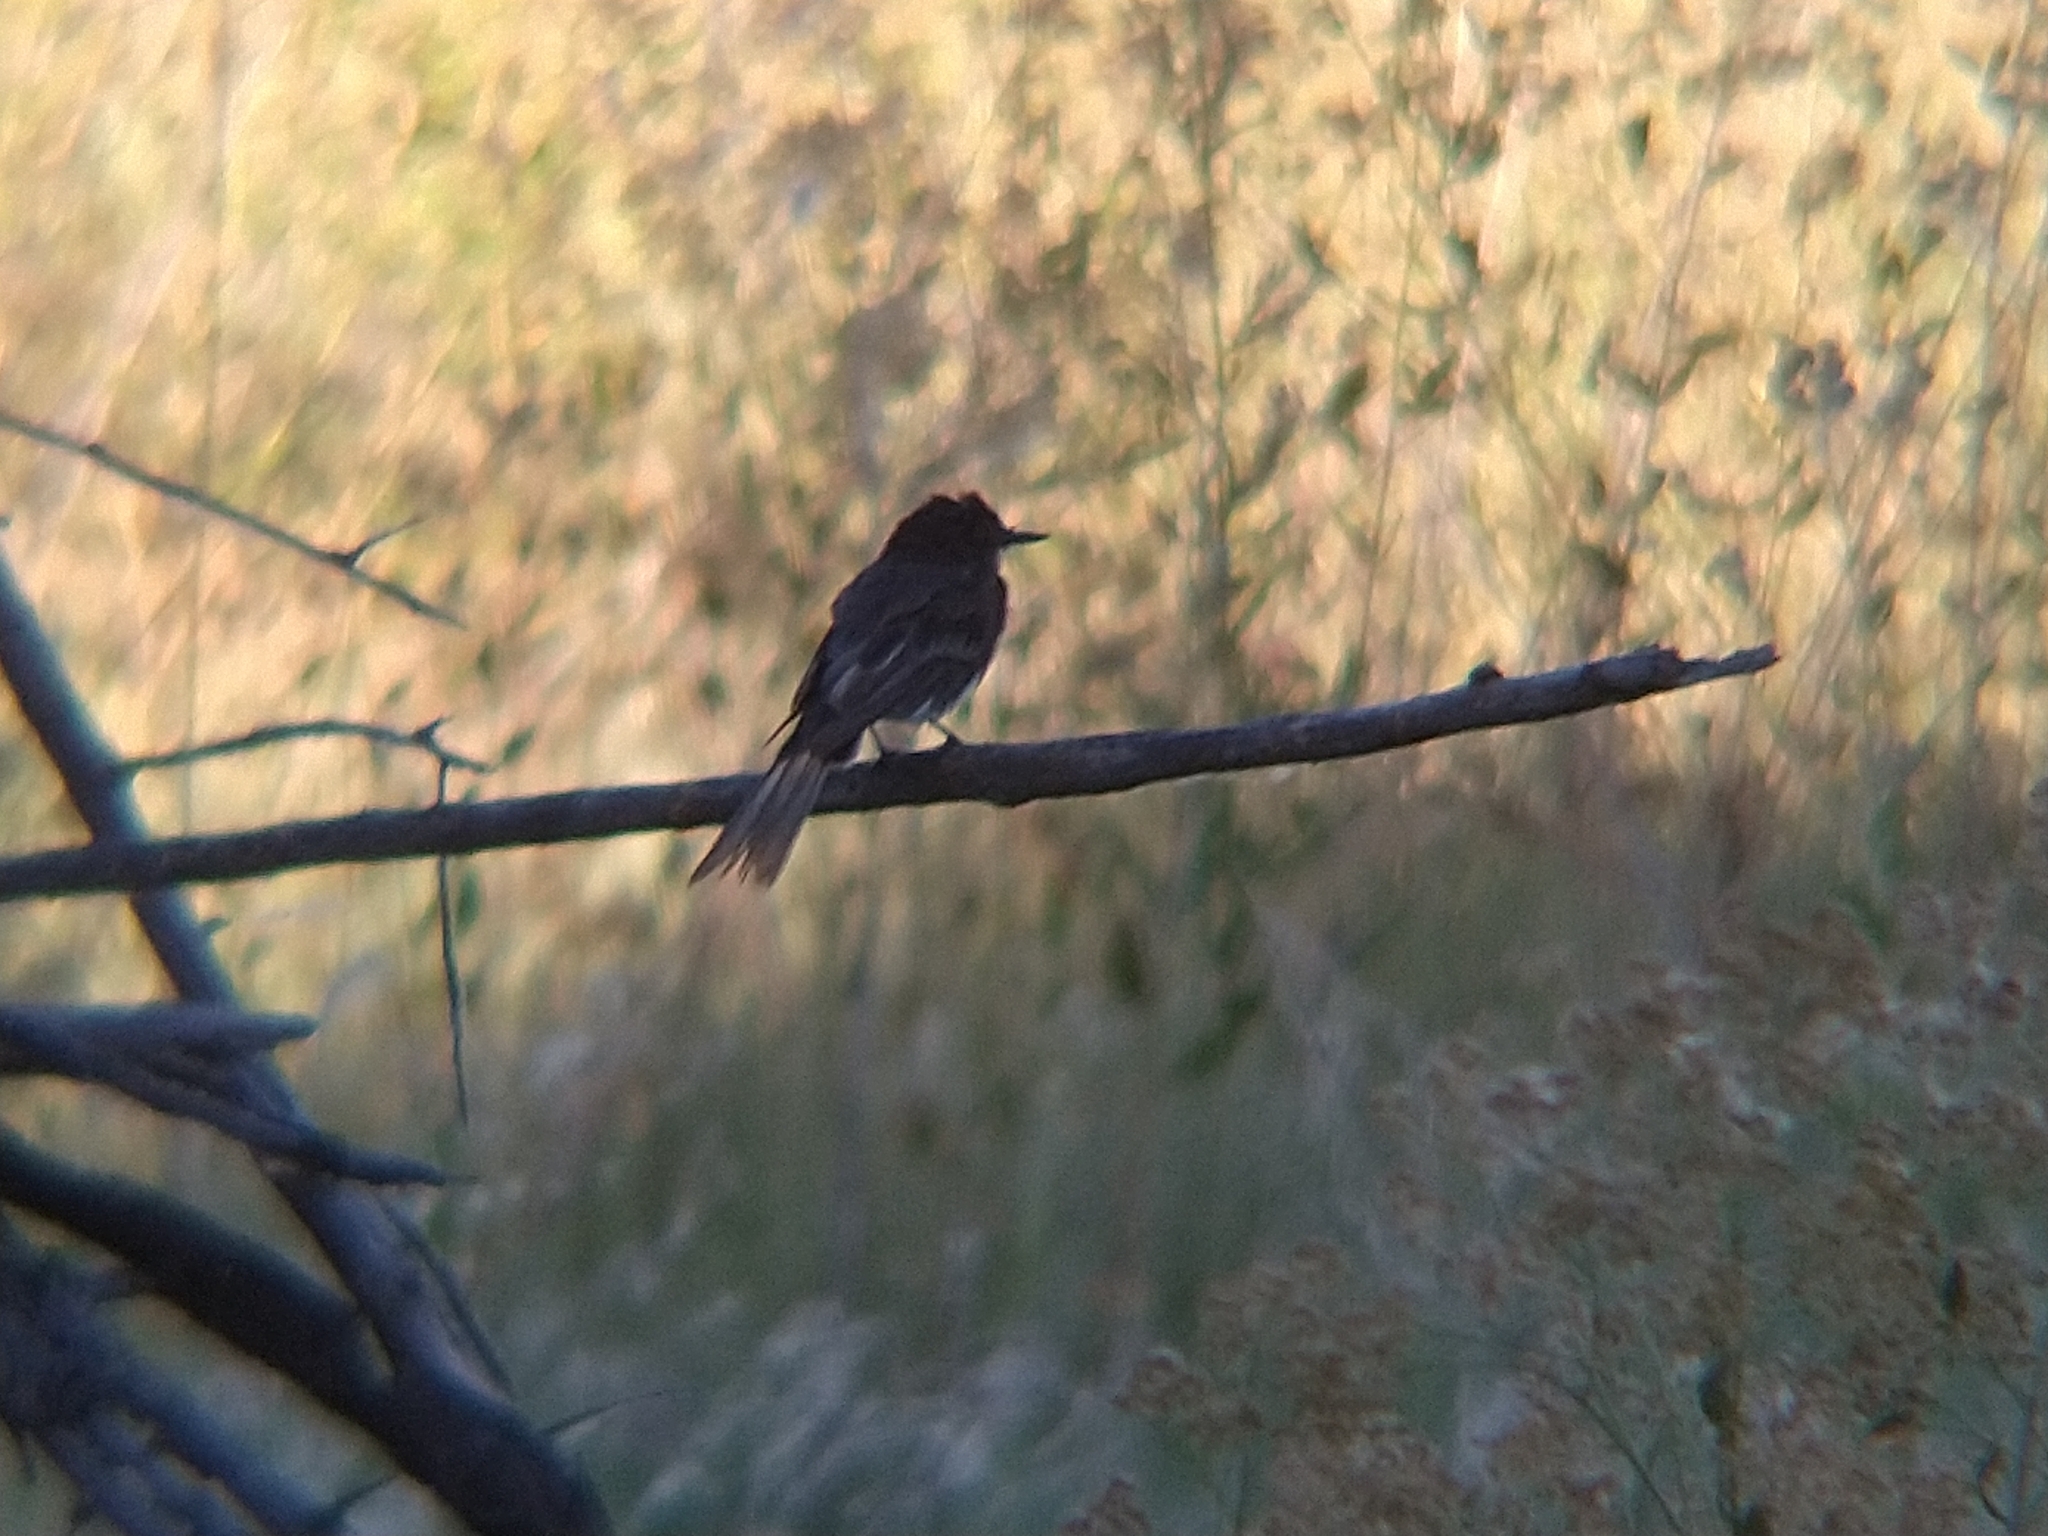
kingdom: Animalia
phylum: Chordata
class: Aves
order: Passeriformes
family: Tyrannidae
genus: Sayornis
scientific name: Sayornis nigricans
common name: Black phoebe
